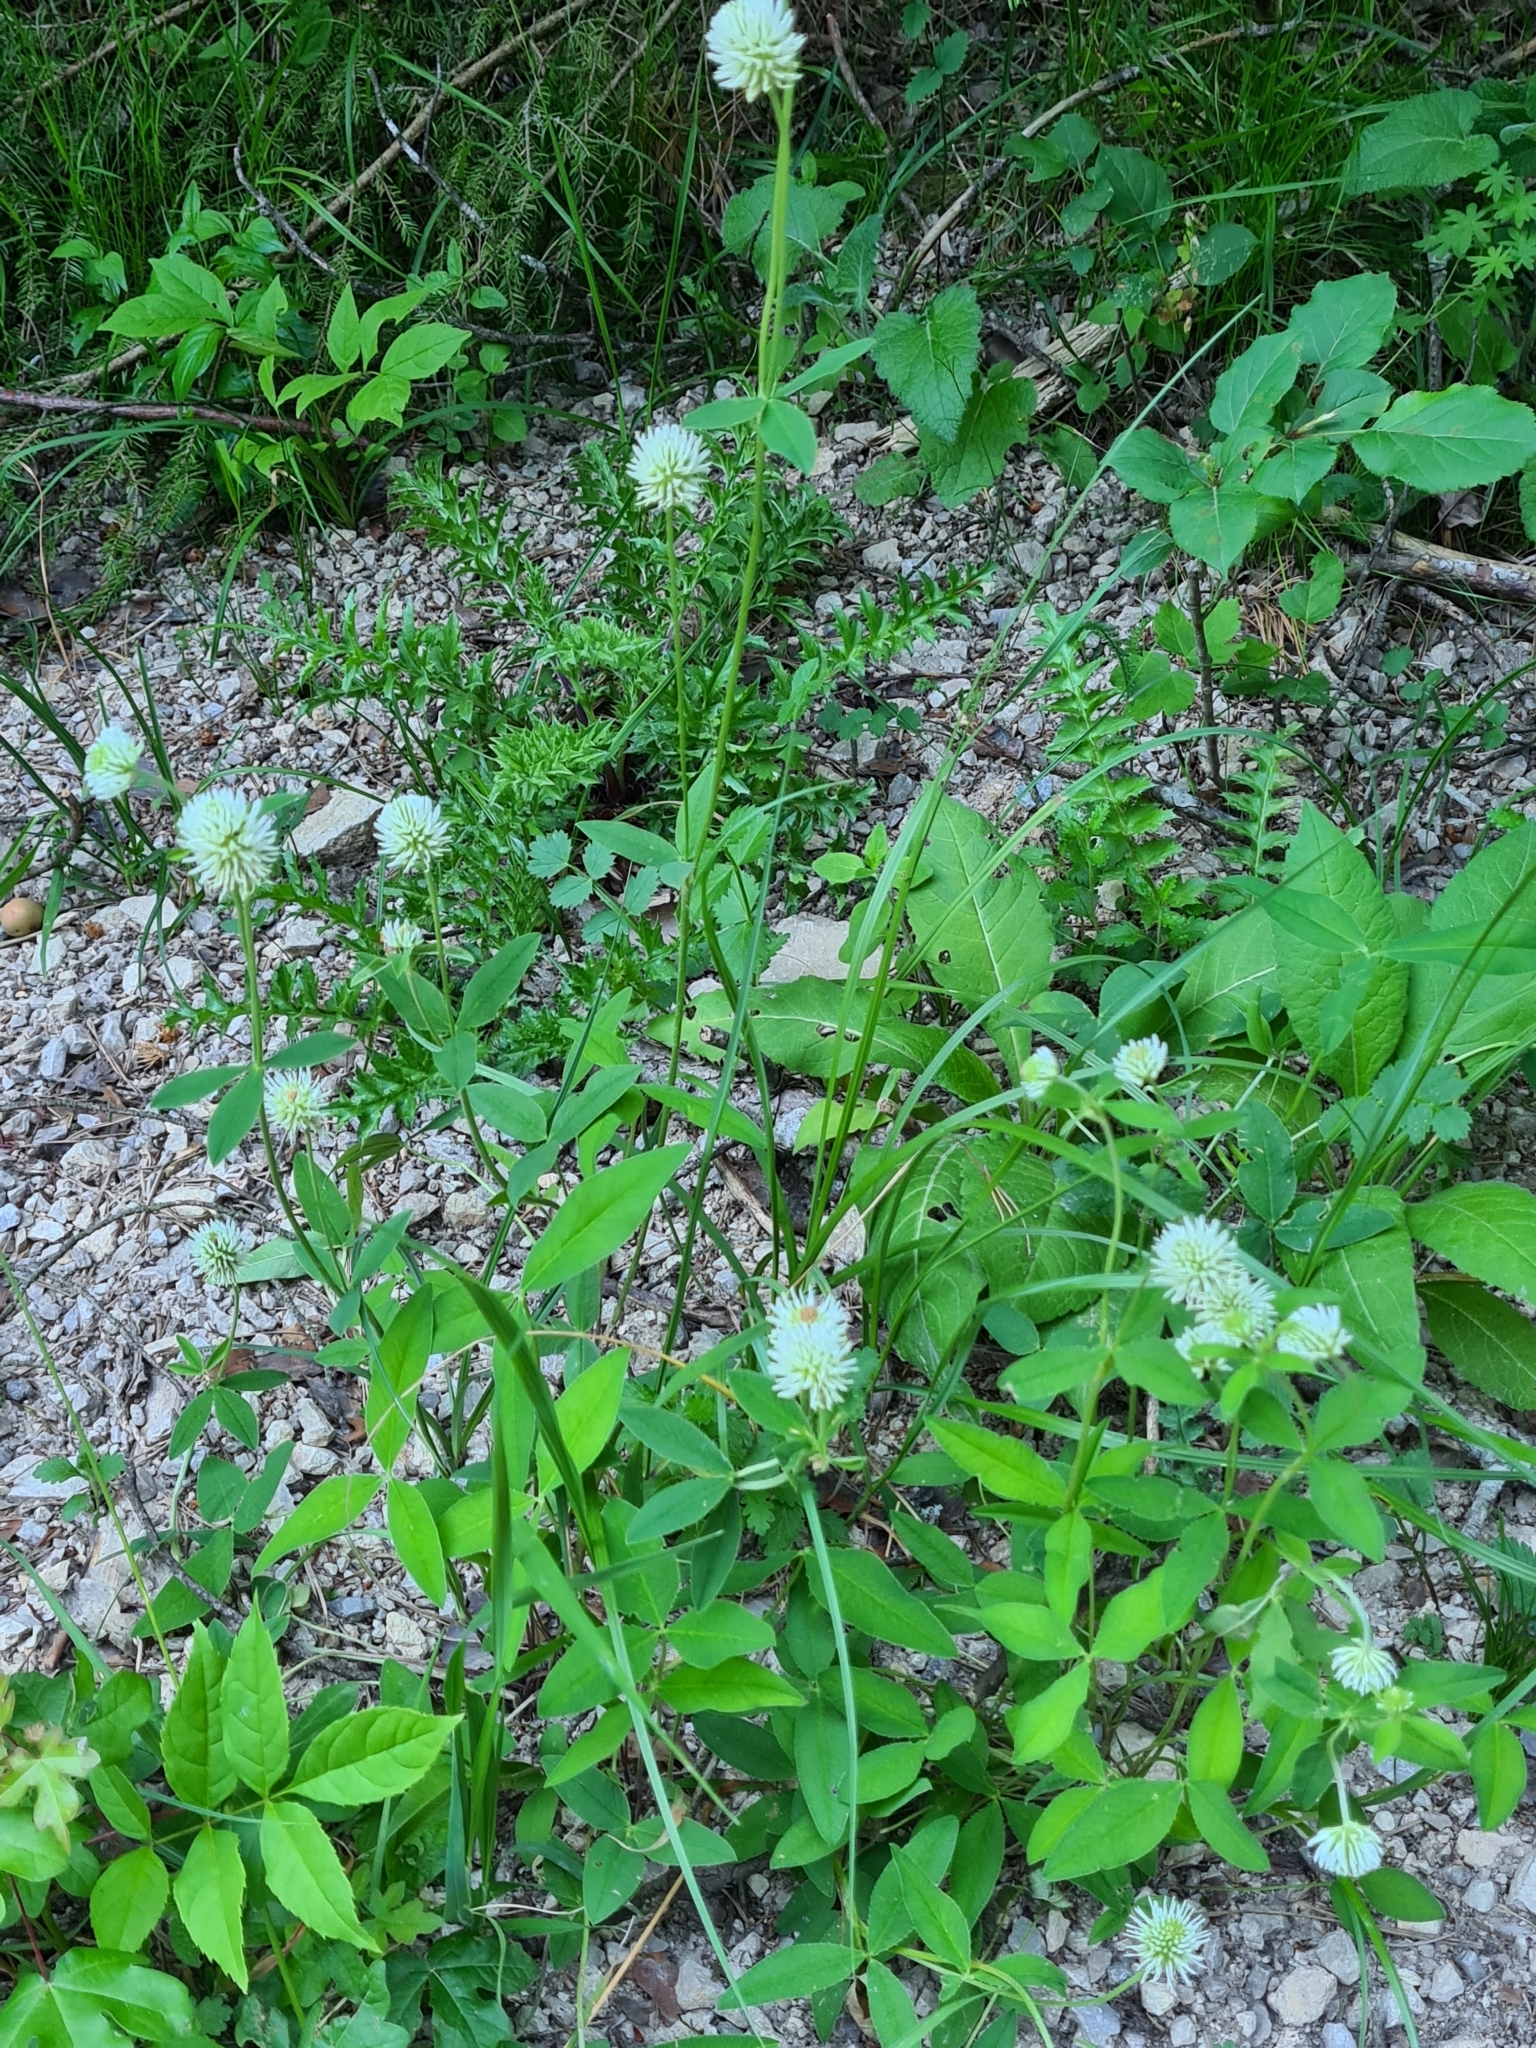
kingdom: Plantae
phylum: Tracheophyta
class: Magnoliopsida
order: Fabales
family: Fabaceae
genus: Trifolium
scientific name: Trifolium montanum
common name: Mountain clover
